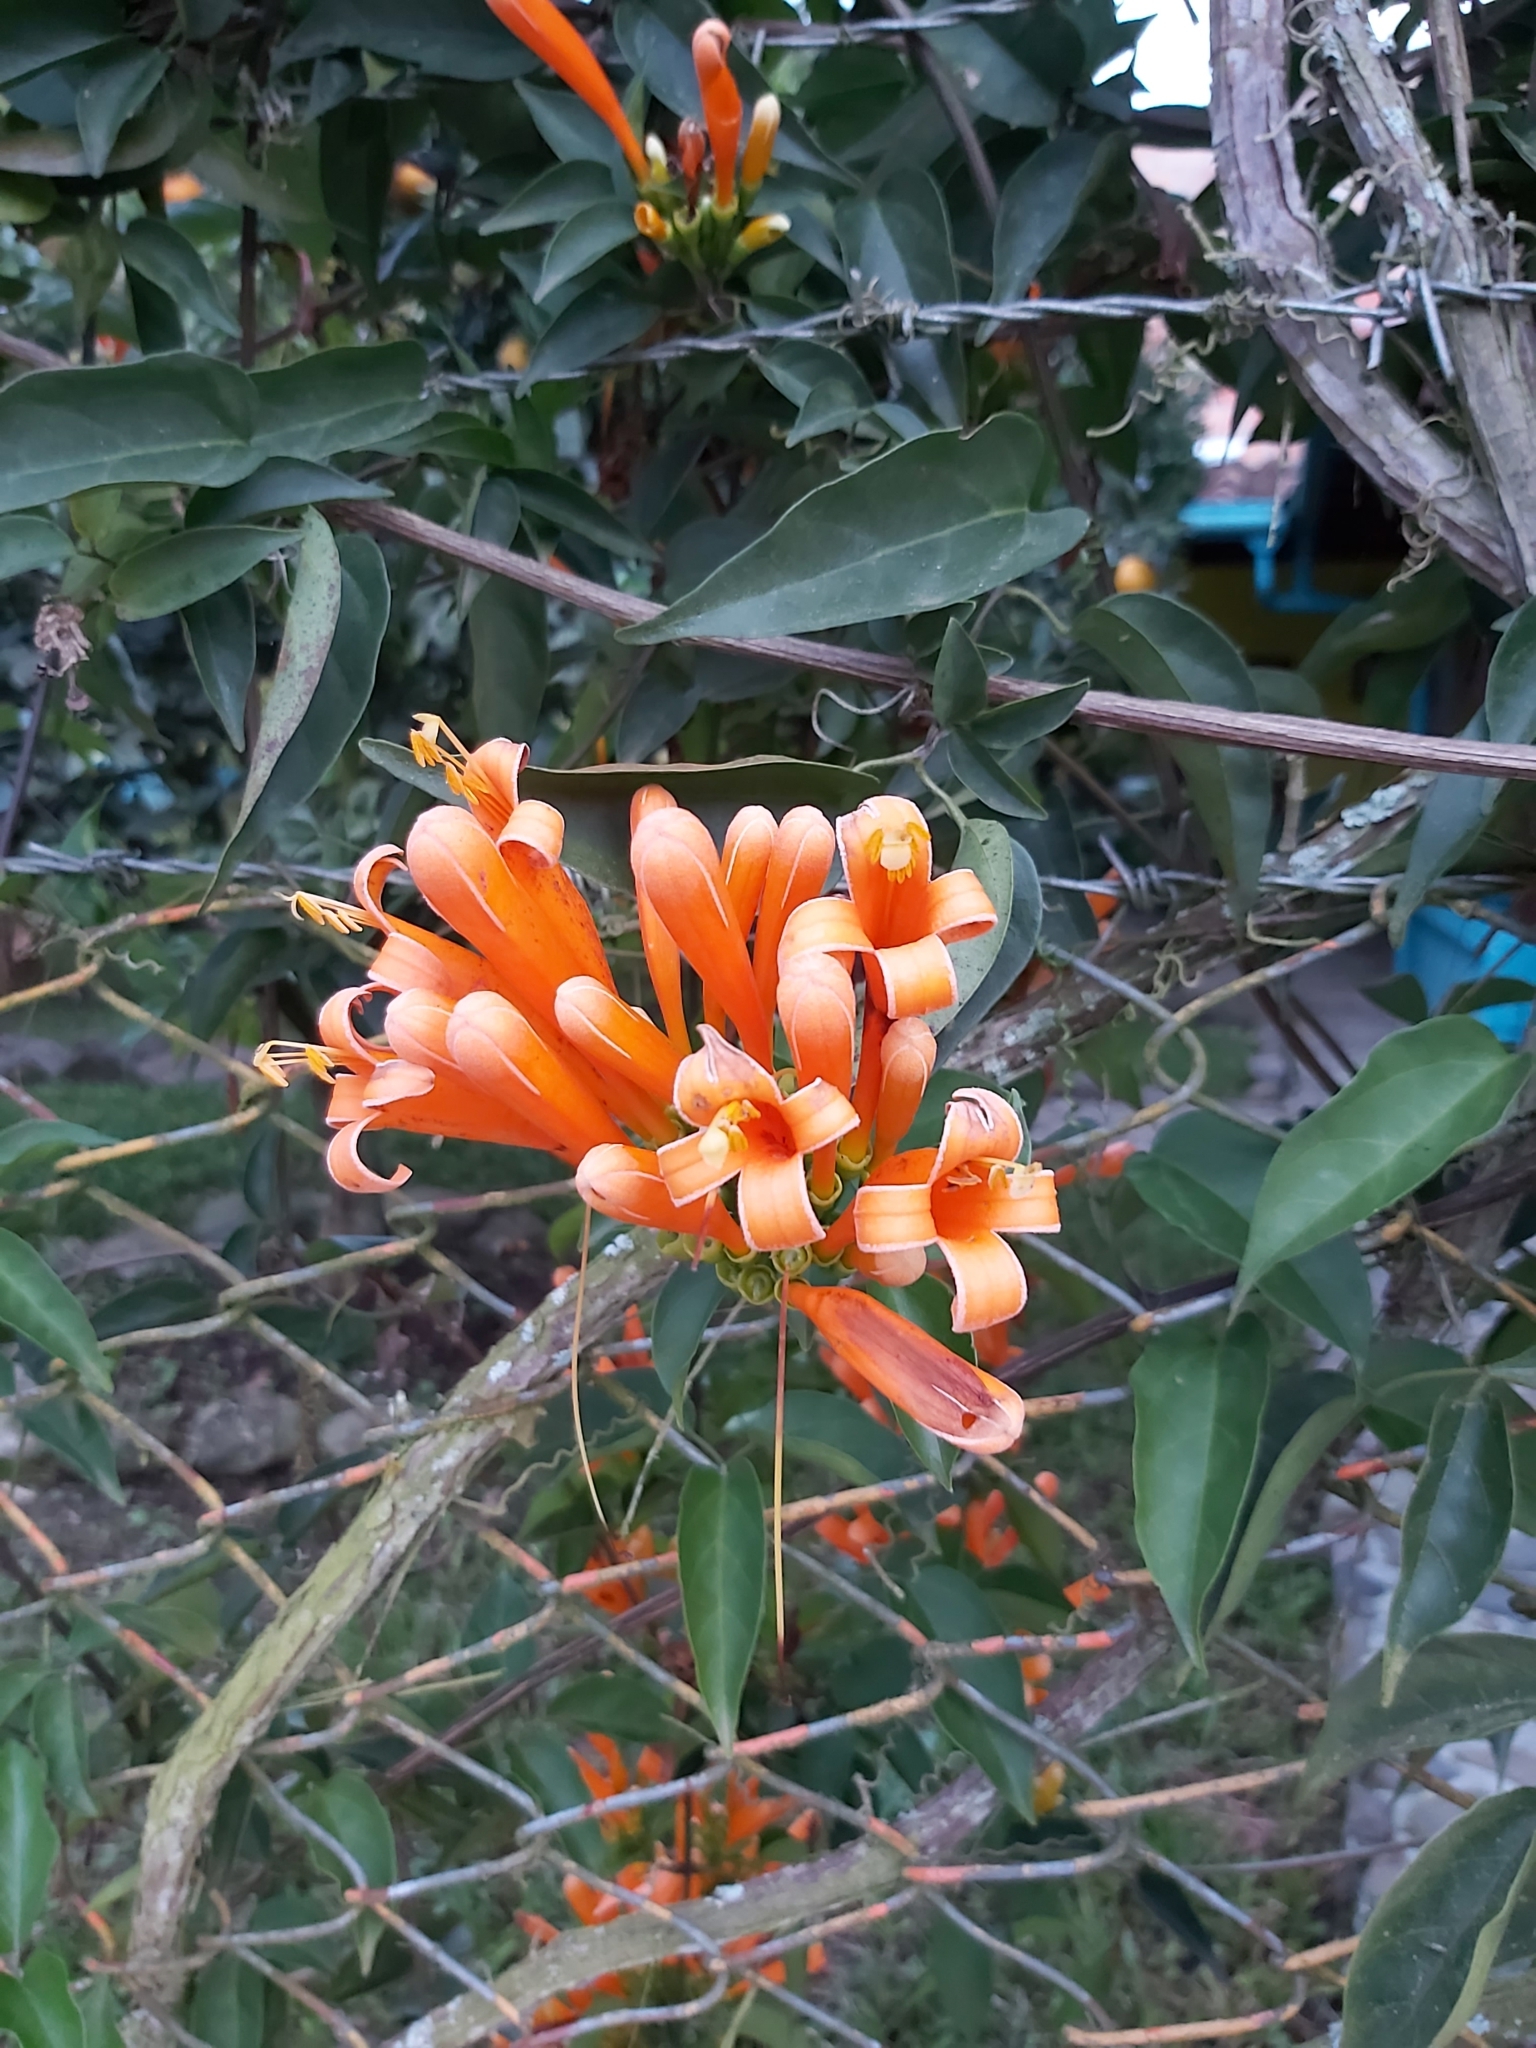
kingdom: Plantae
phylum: Tracheophyta
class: Magnoliopsida
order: Lamiales
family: Bignoniaceae
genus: Pyrostegia
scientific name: Pyrostegia venusta
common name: Flamevine
